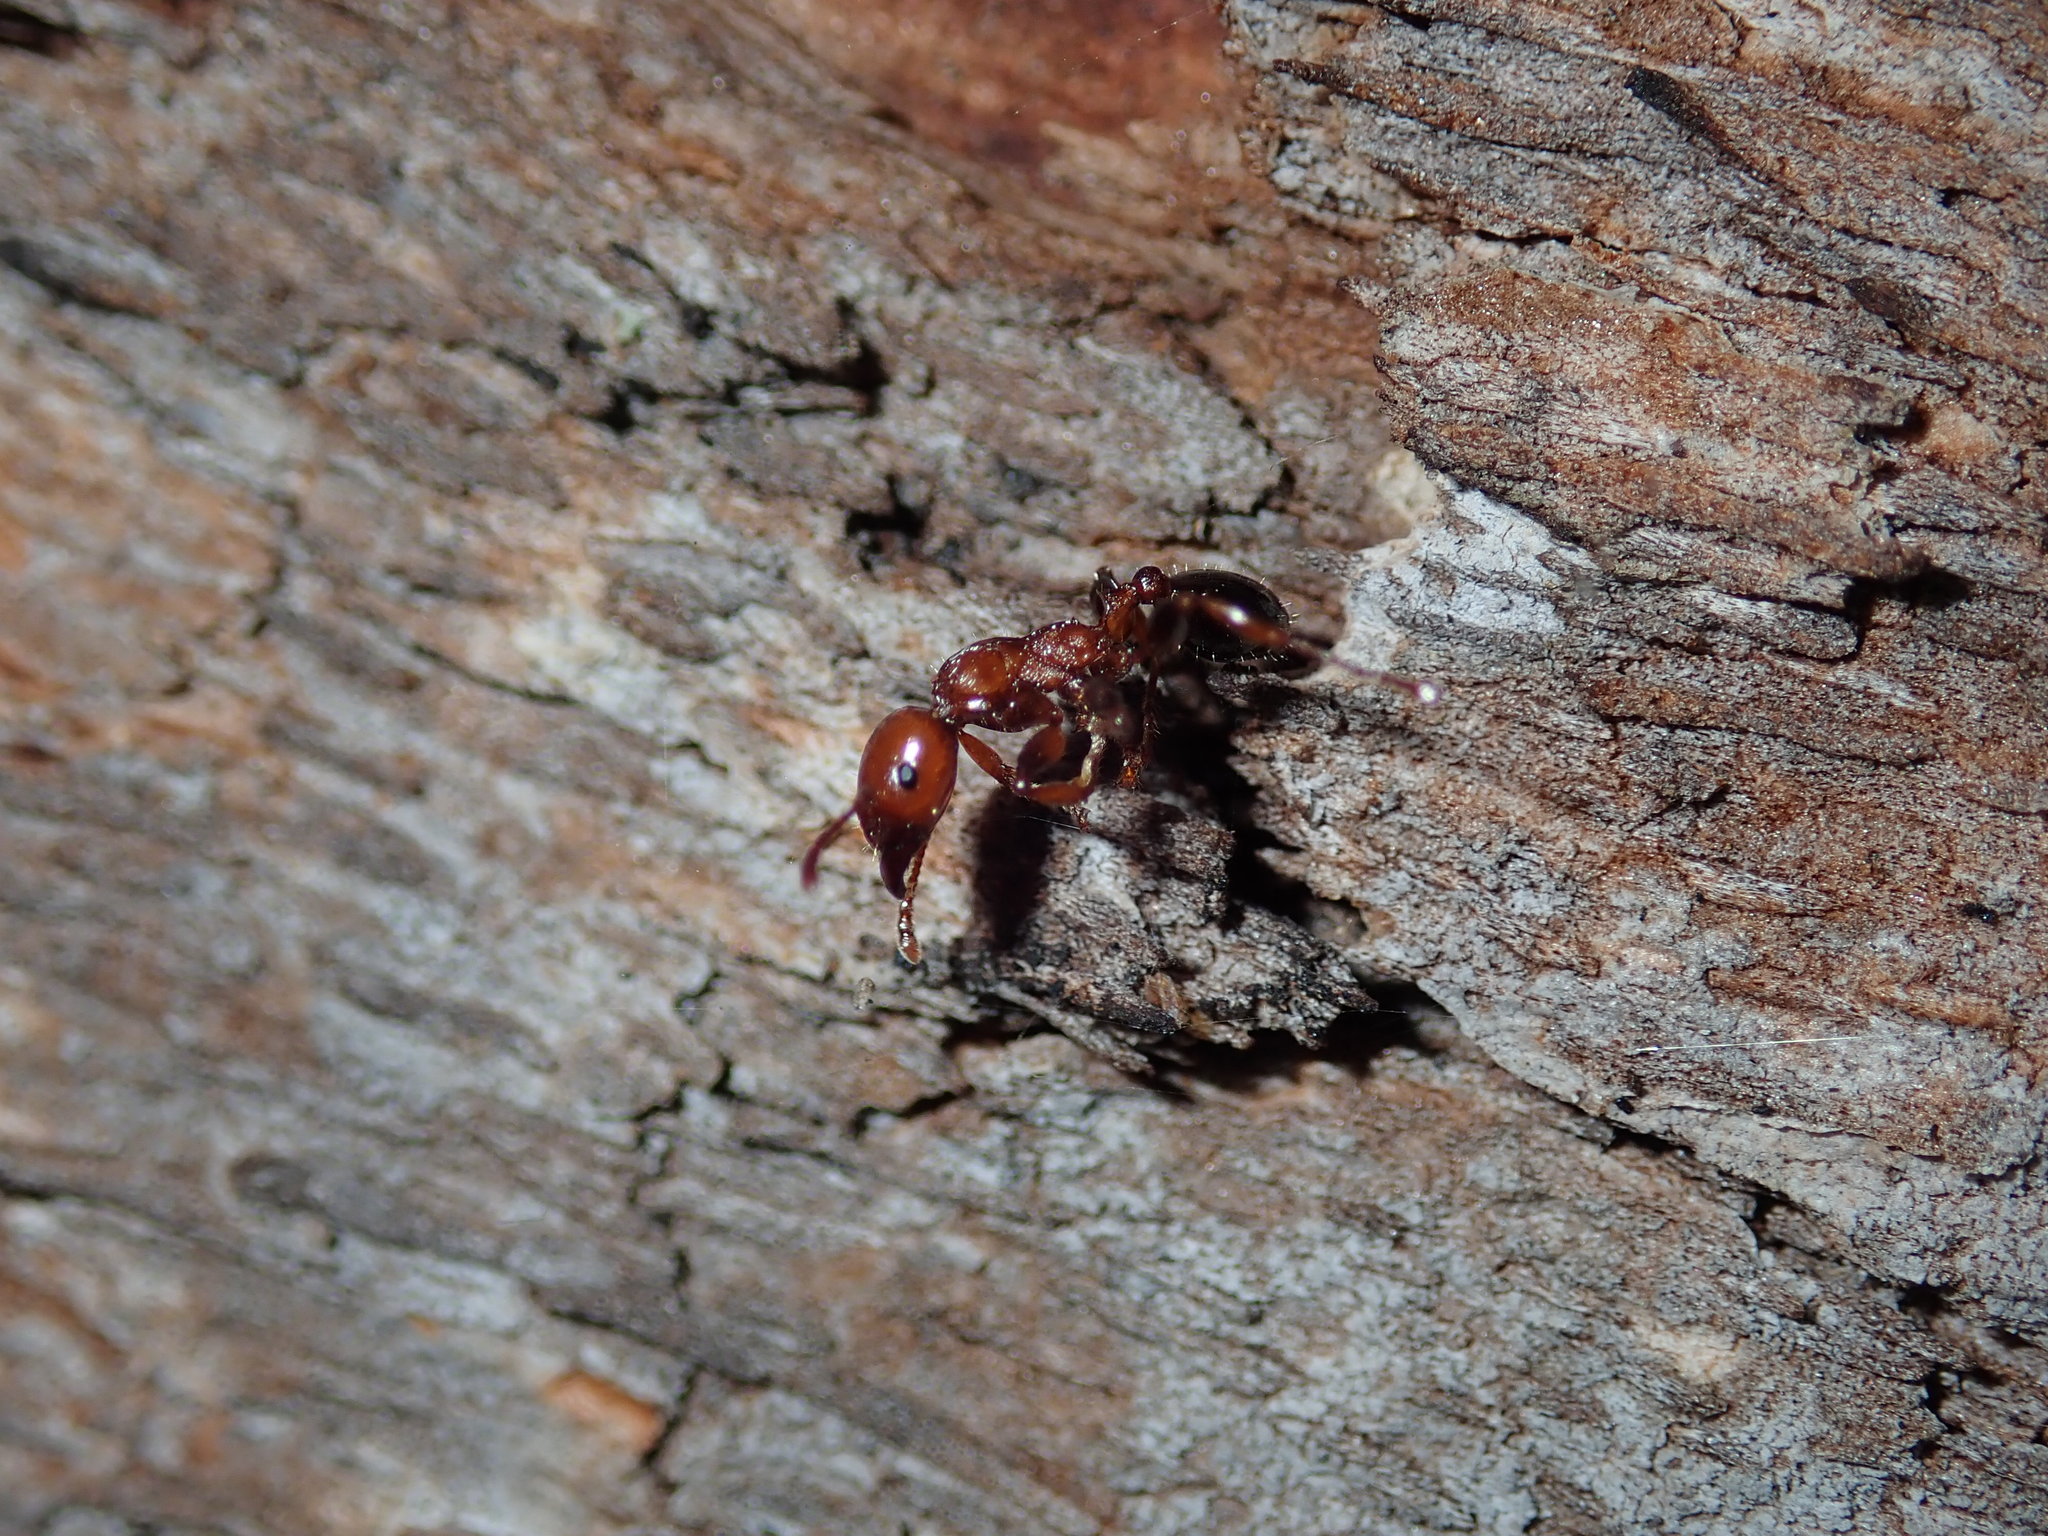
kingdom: Animalia
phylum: Arthropoda
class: Insecta
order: Hymenoptera
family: Formicidae
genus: Podomyrma
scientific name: Podomyrma gratiosa
